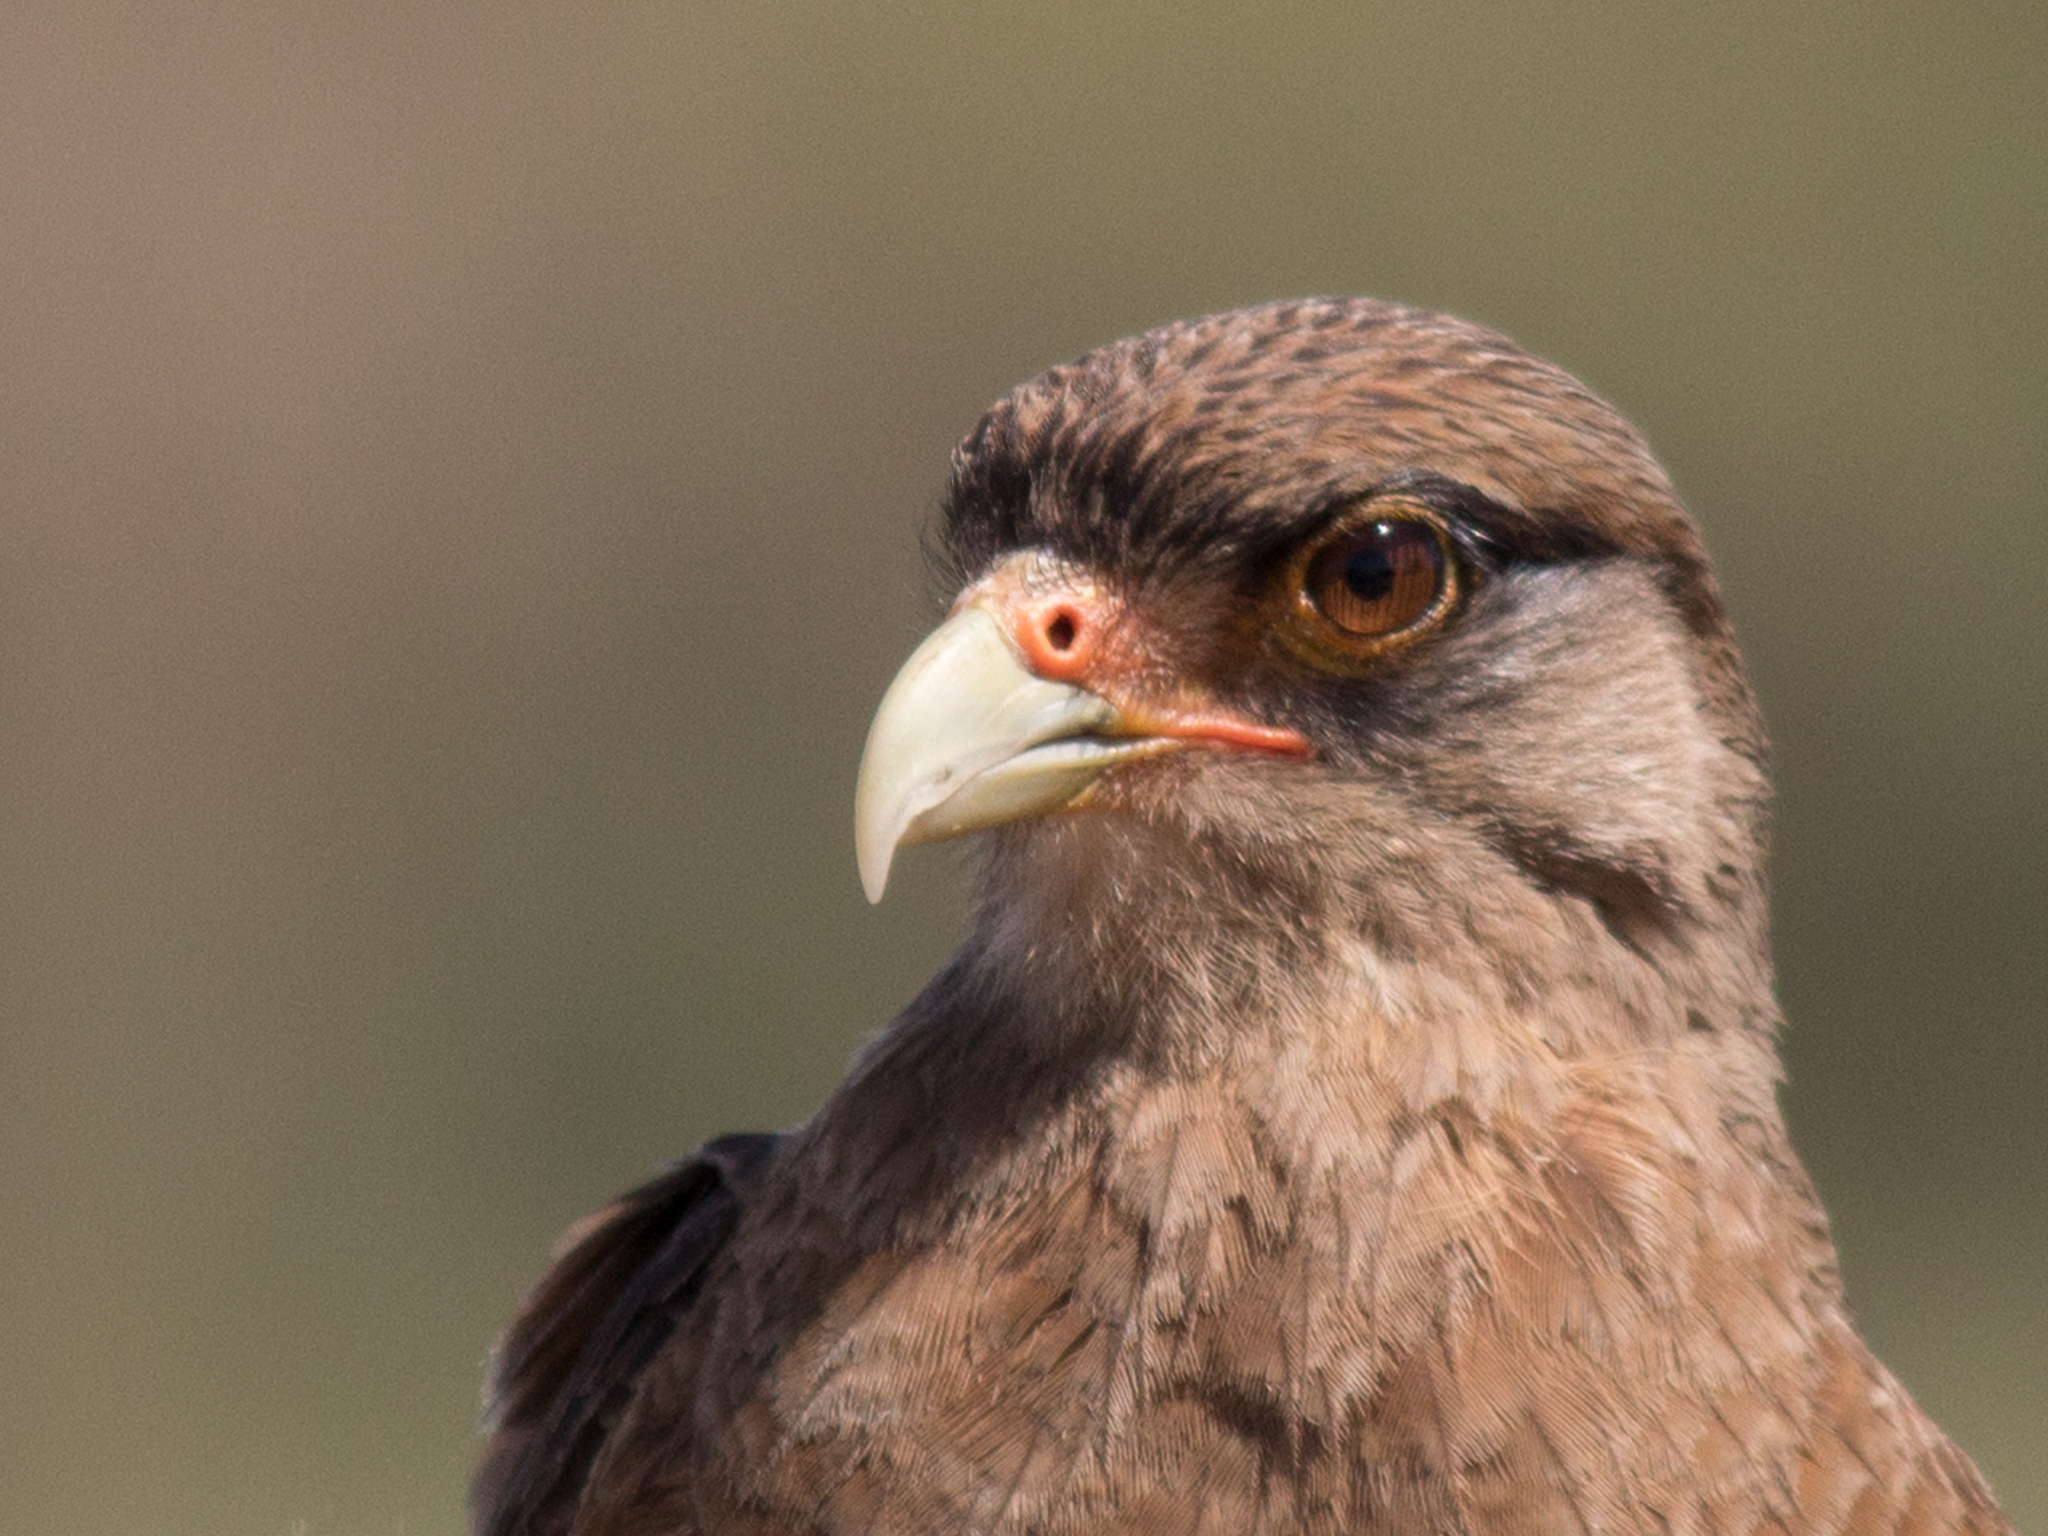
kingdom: Animalia
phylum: Chordata
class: Aves
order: Falconiformes
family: Falconidae
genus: Daptrius
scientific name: Daptrius
